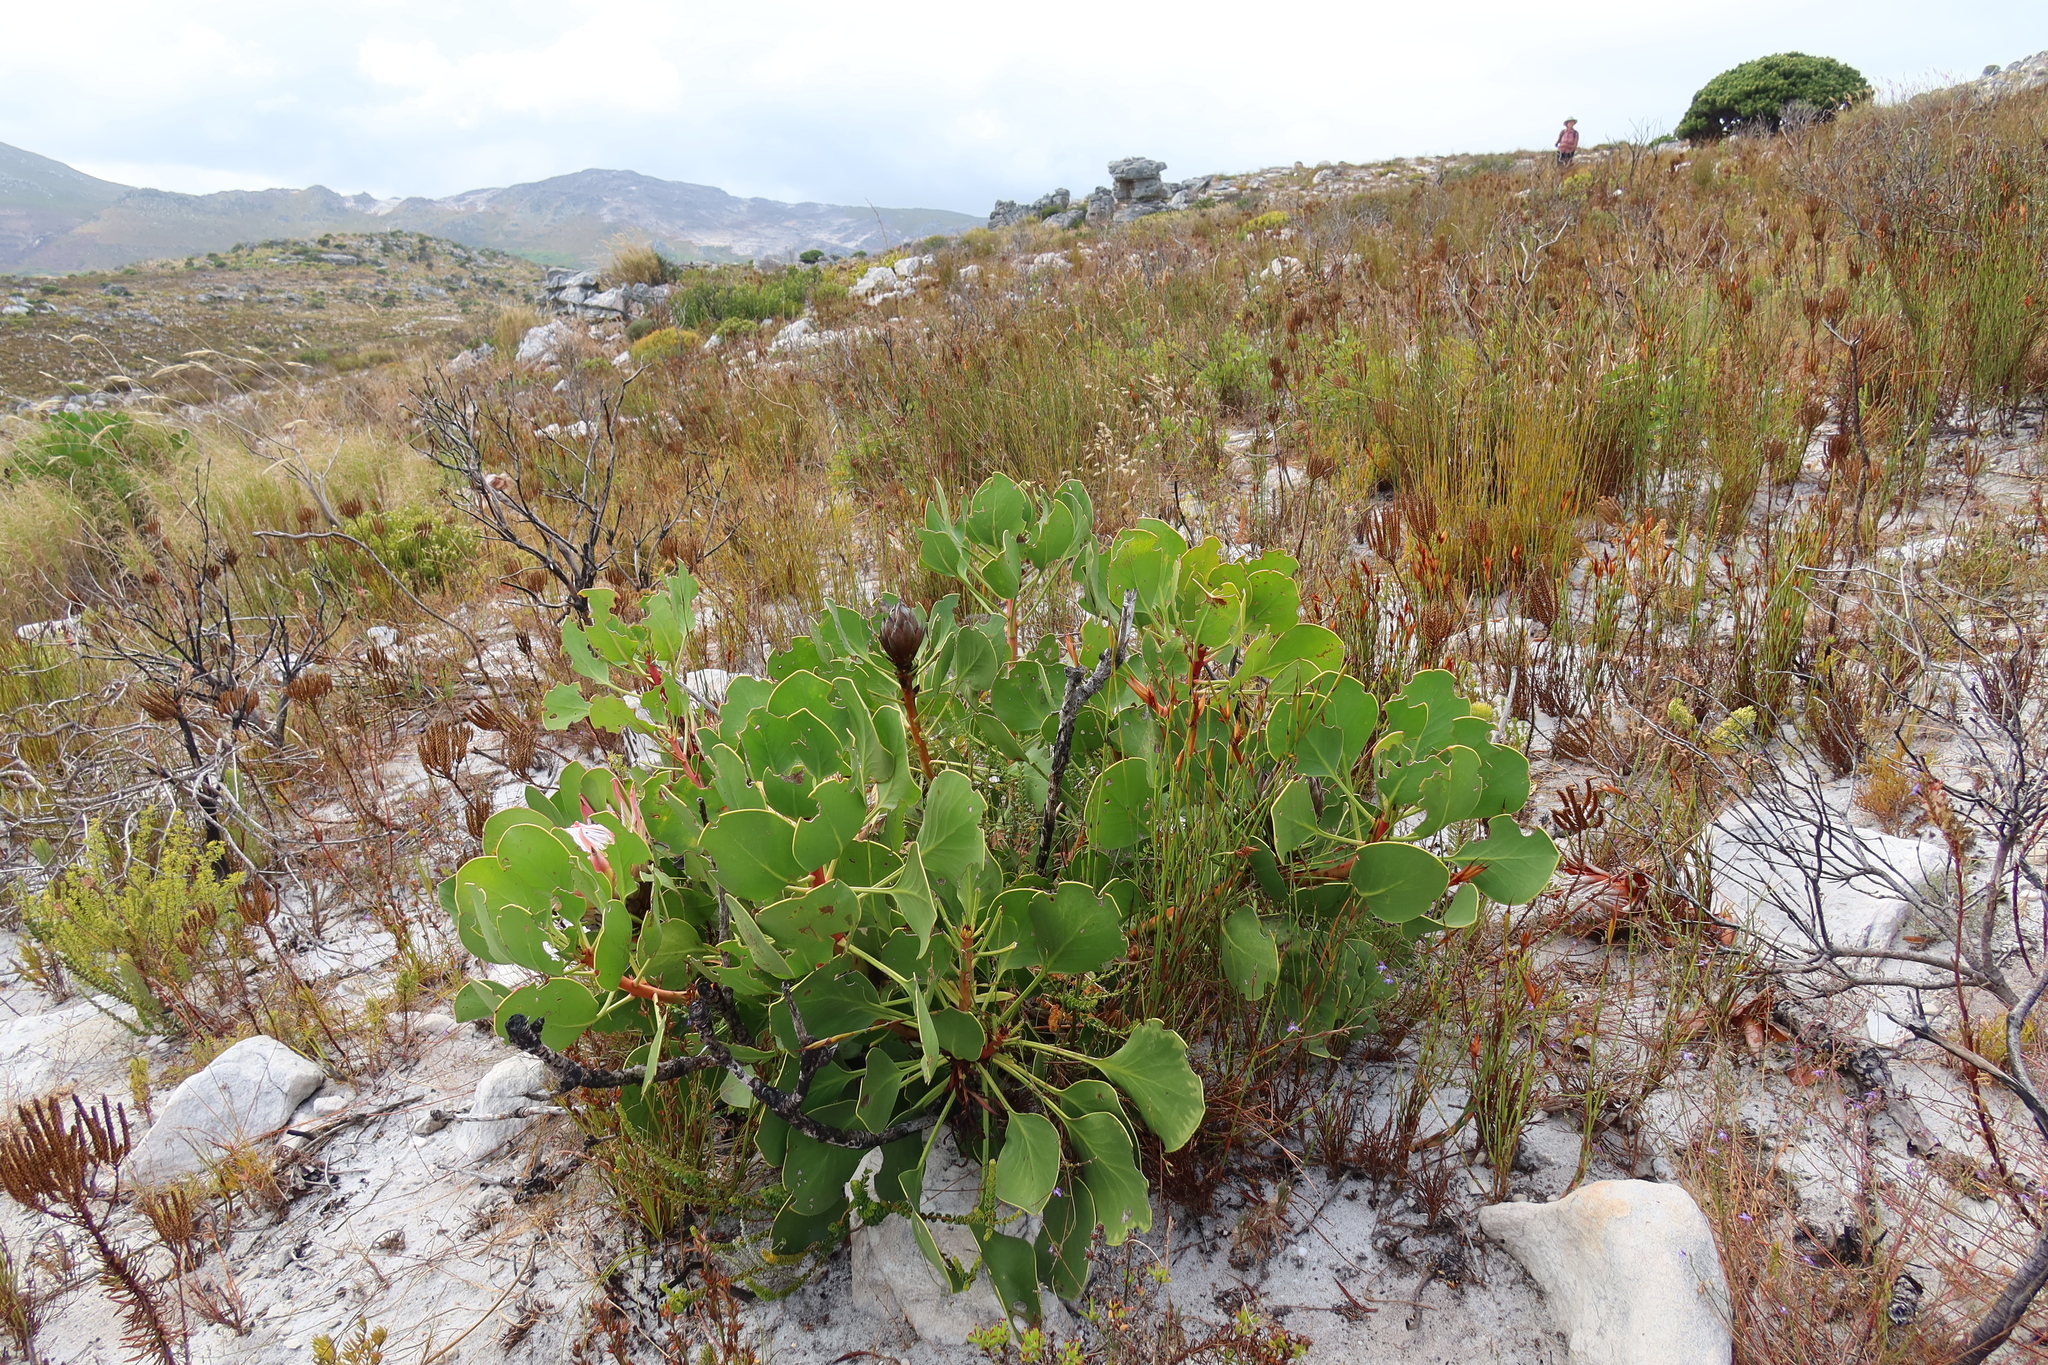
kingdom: Plantae
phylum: Tracheophyta
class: Magnoliopsida
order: Proteales
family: Proteaceae
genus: Protea
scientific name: Protea cynaroides
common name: King protea
